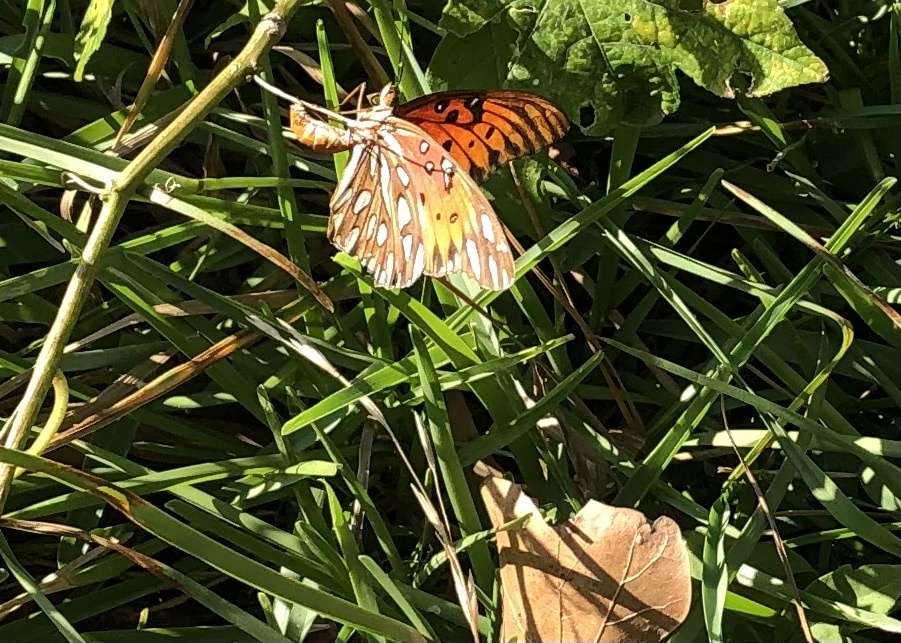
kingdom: Animalia
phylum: Arthropoda
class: Insecta
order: Lepidoptera
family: Nymphalidae
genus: Dione
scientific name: Dione vanillae
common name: Gulf fritillary
